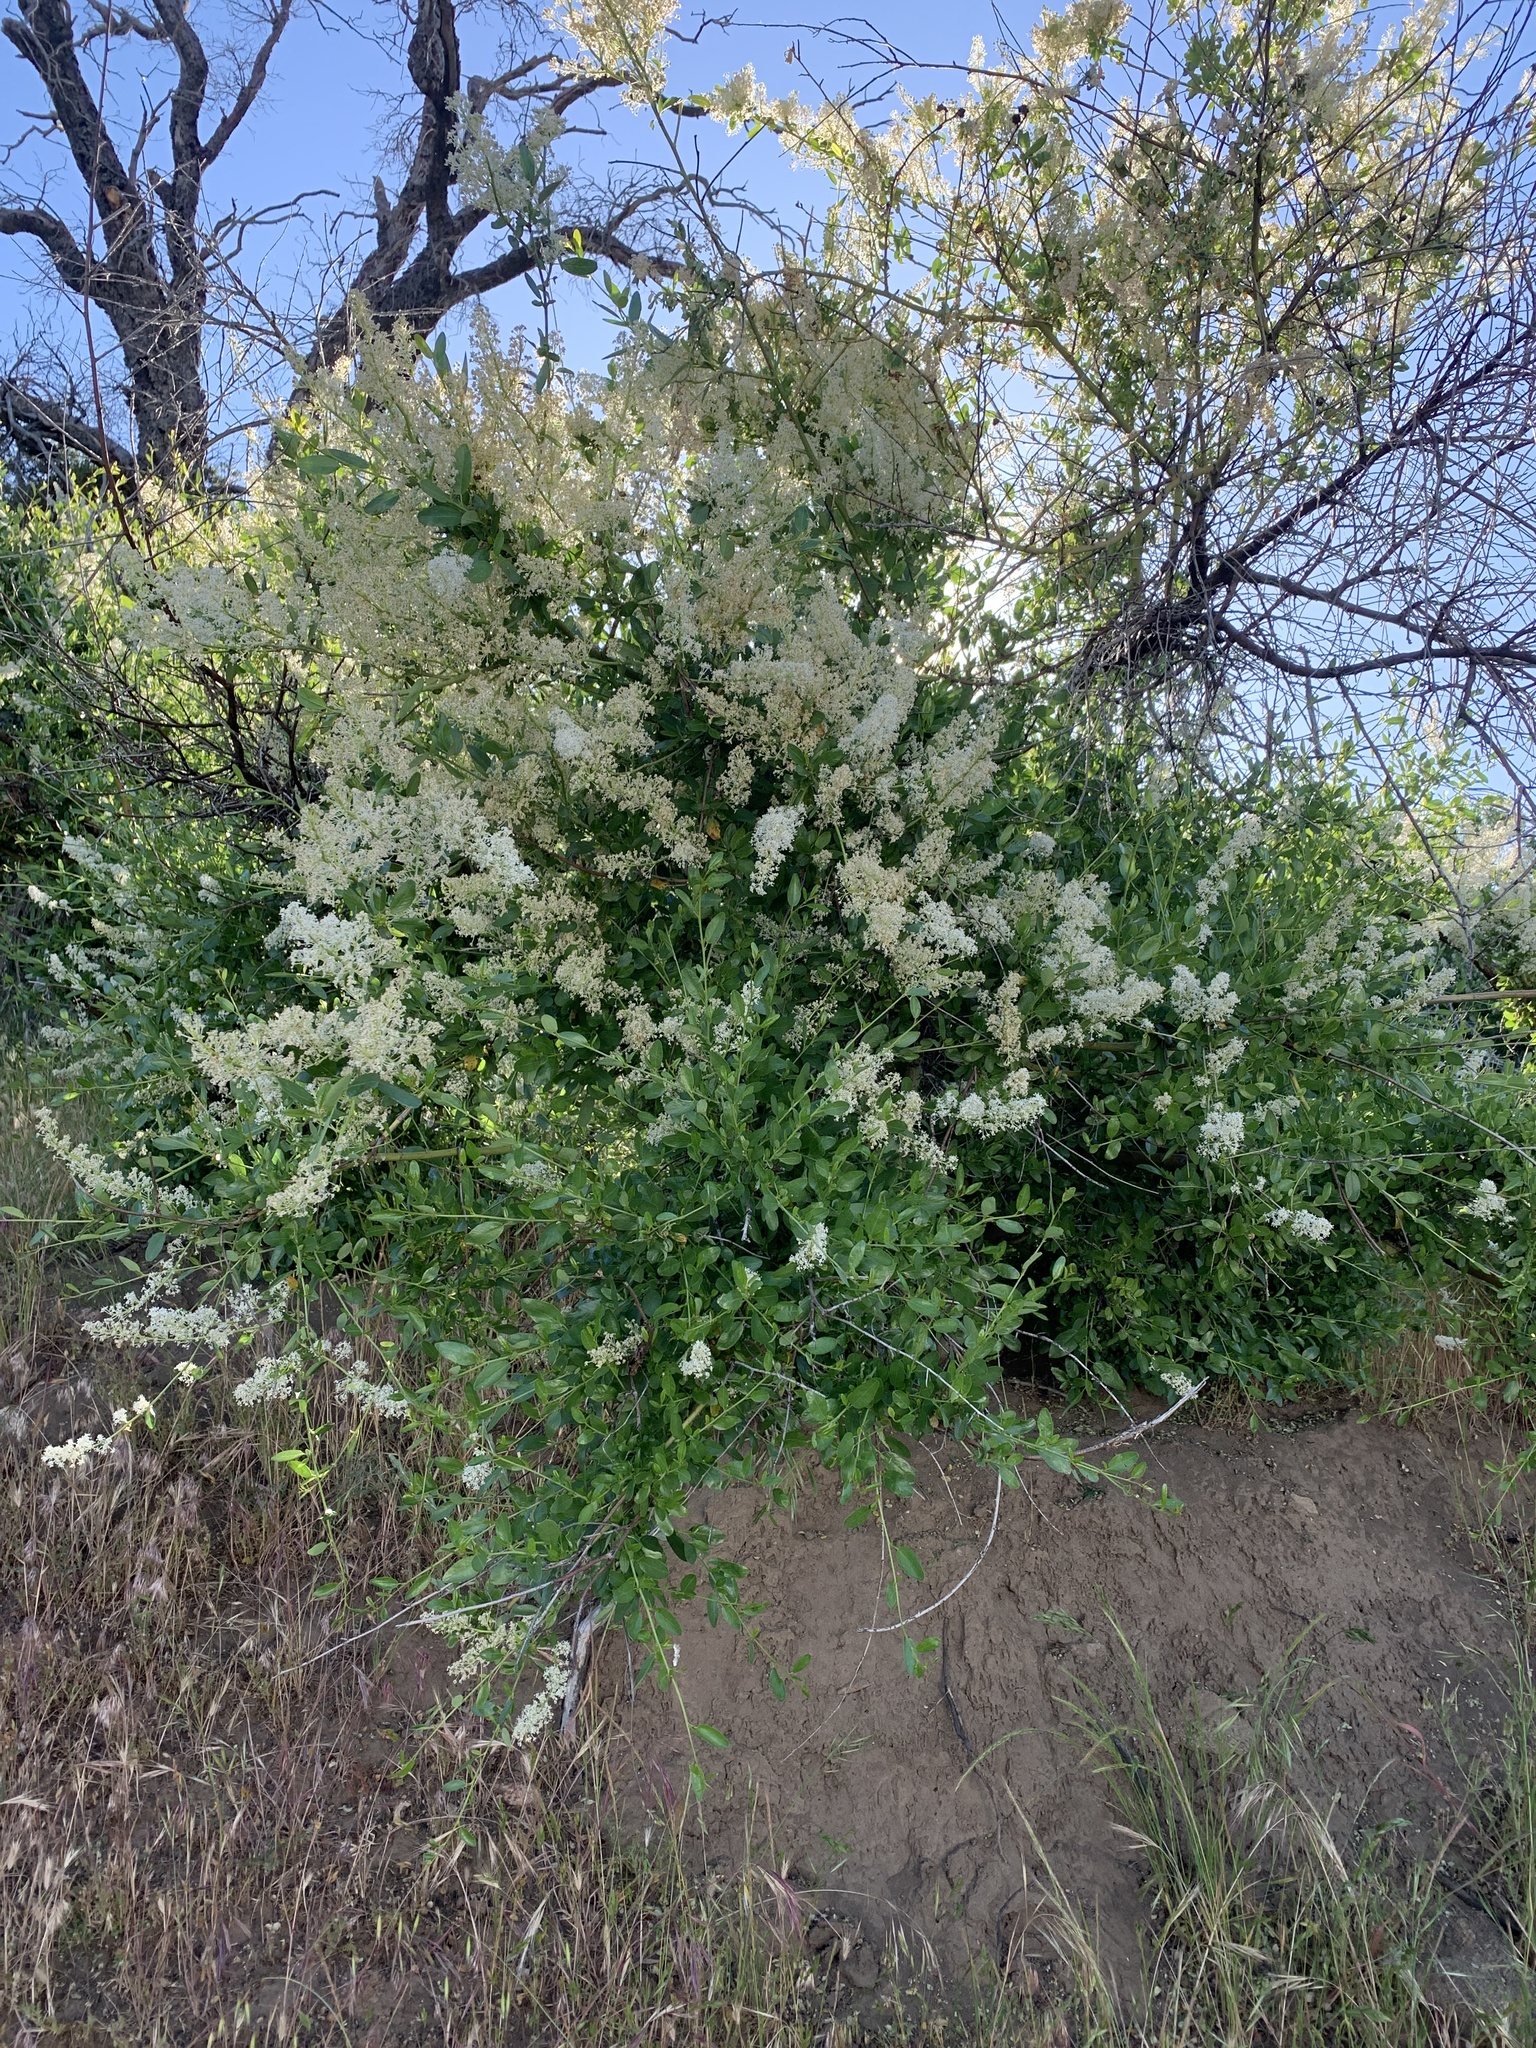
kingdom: Plantae
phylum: Tracheophyta
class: Magnoliopsida
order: Rosales
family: Rhamnaceae
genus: Ceanothus
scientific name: Ceanothus palmeri
